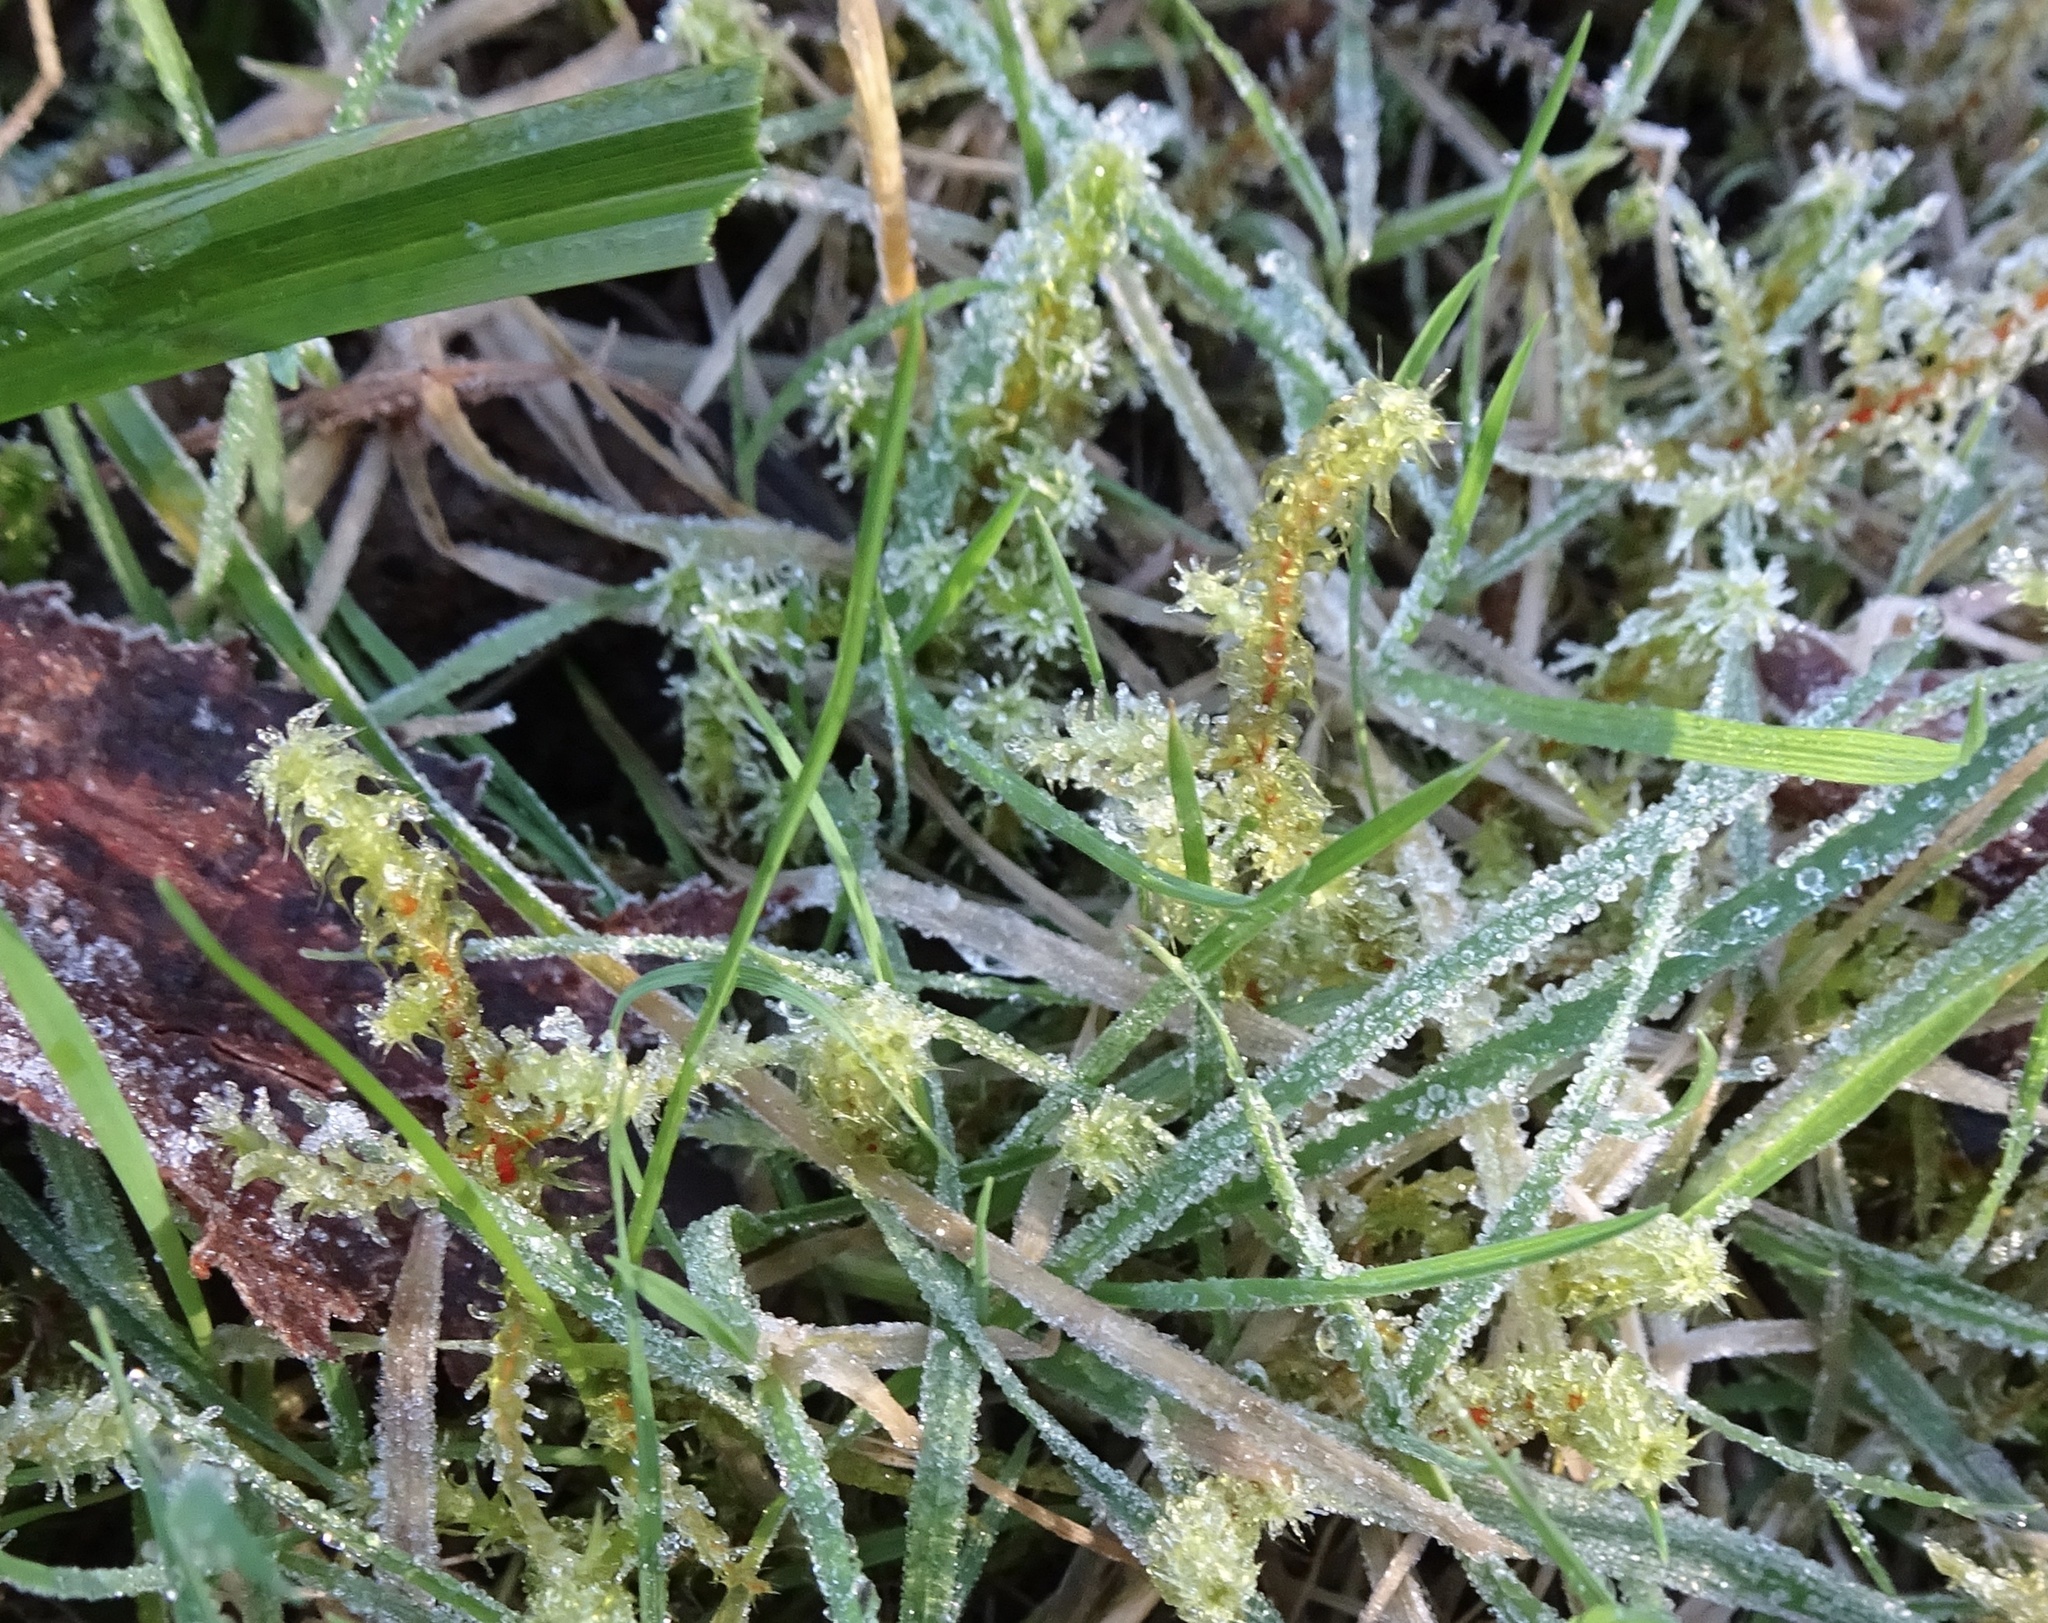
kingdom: Plantae
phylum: Bryophyta
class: Bryopsida
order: Hypnales
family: Hylocomiaceae
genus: Rhytidiadelphus
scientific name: Rhytidiadelphus squarrosus
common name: Springy turf-moss
